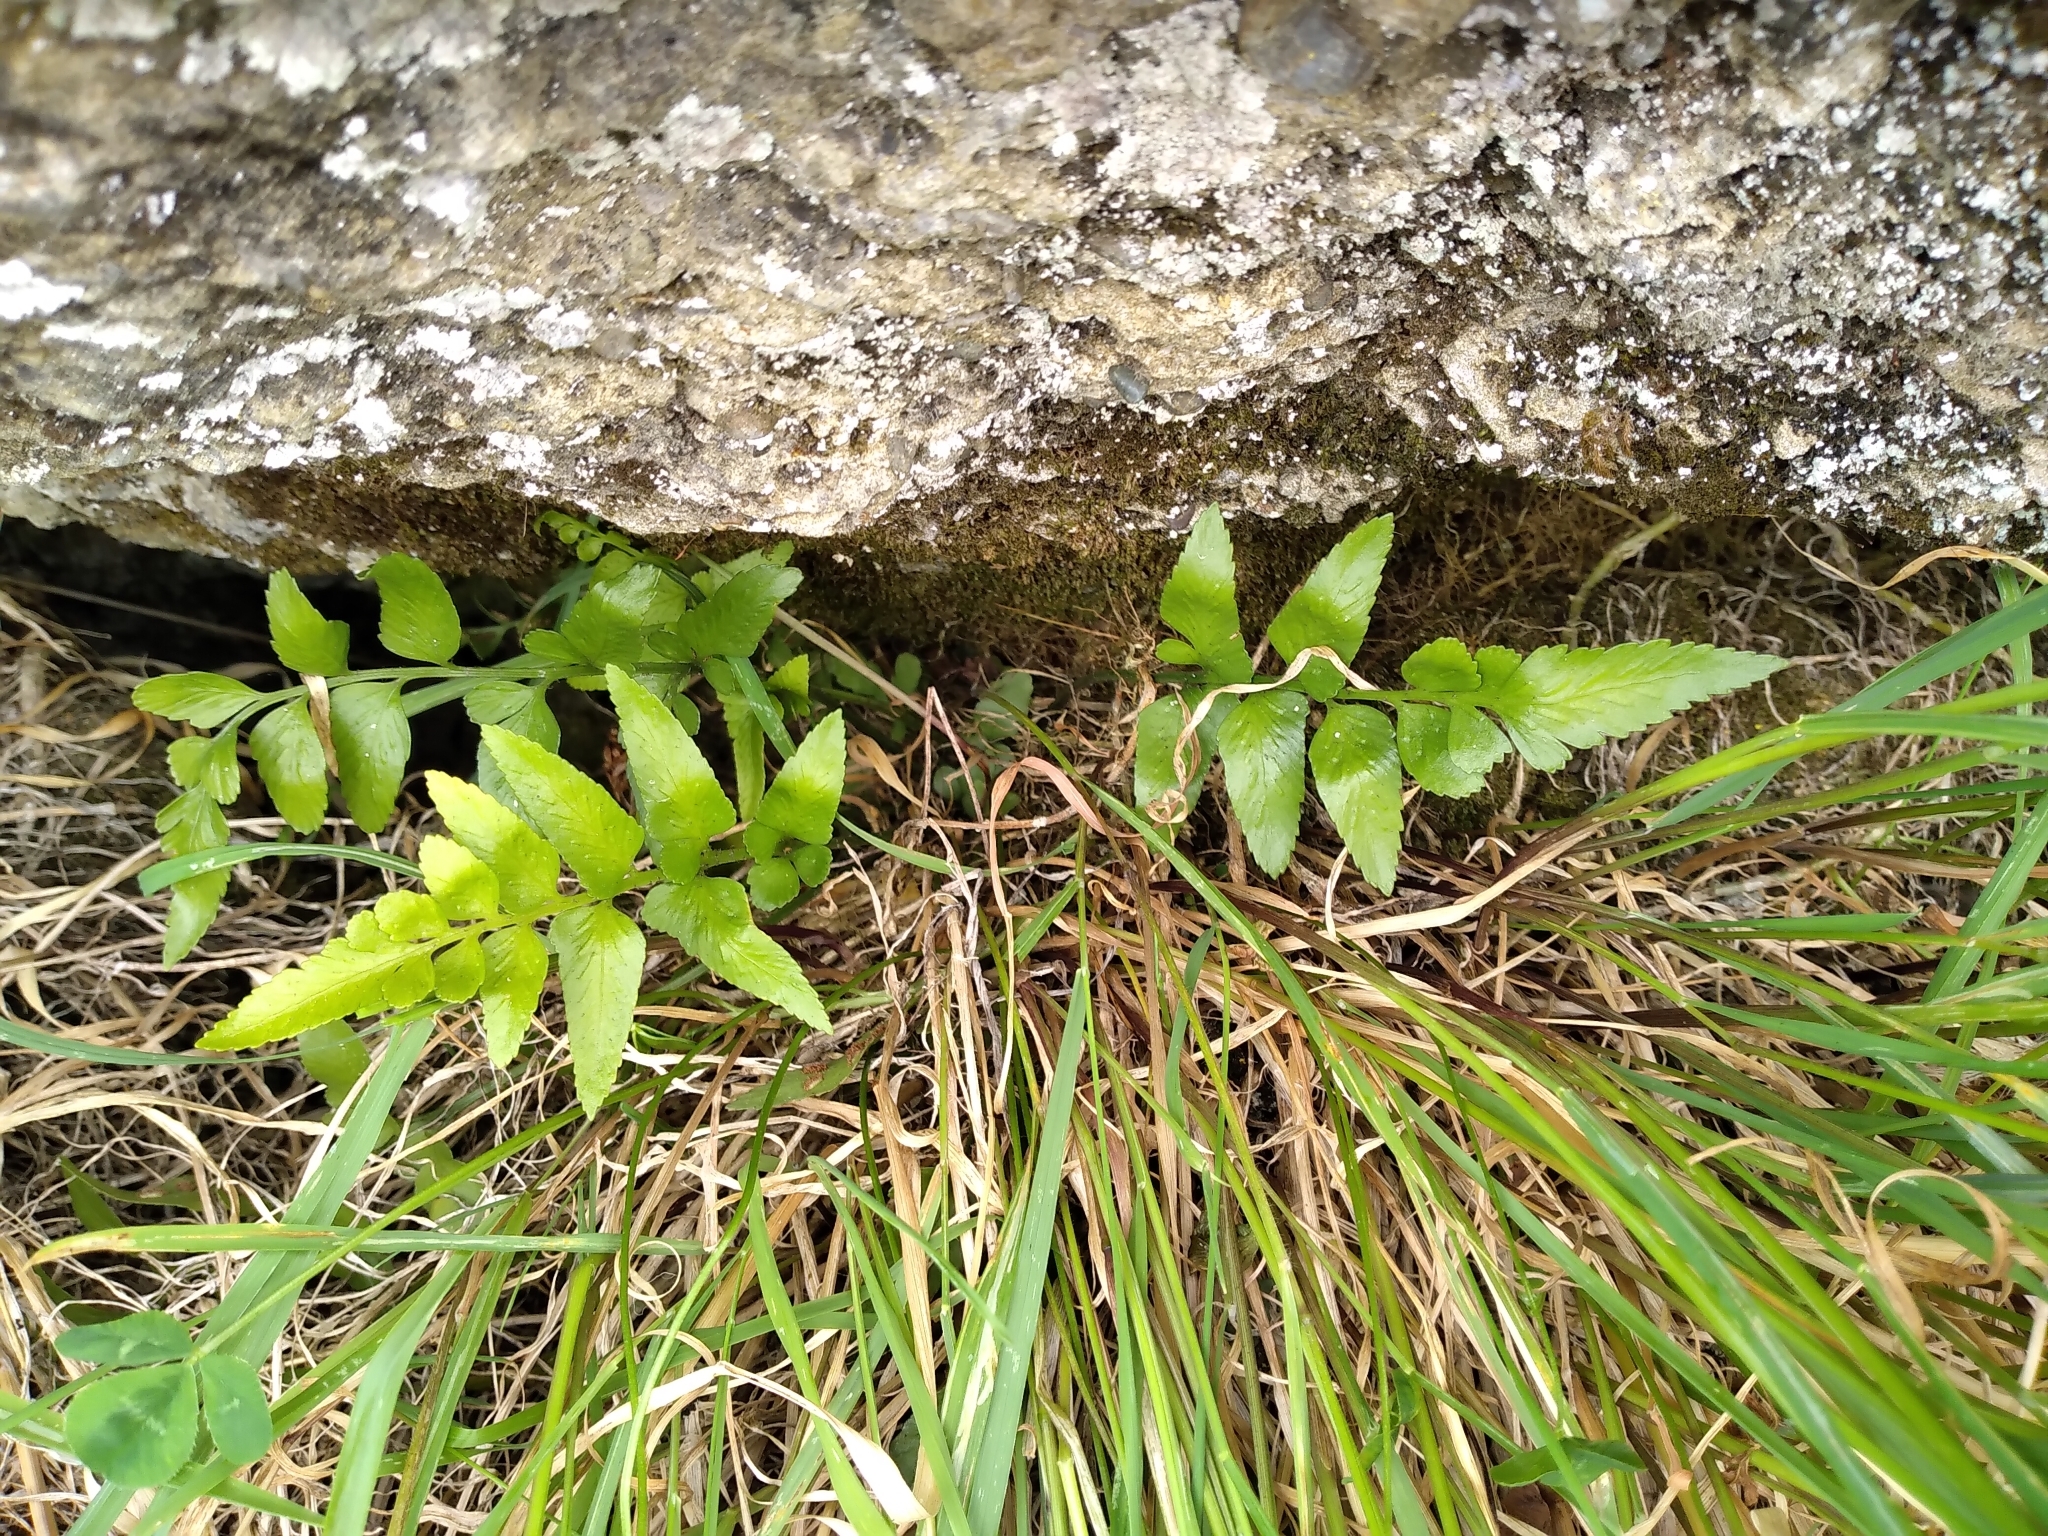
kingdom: Plantae
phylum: Tracheophyta
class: Polypodiopsida
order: Polypodiales
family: Aspleniaceae
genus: Asplenium
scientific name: Asplenium lyallii
